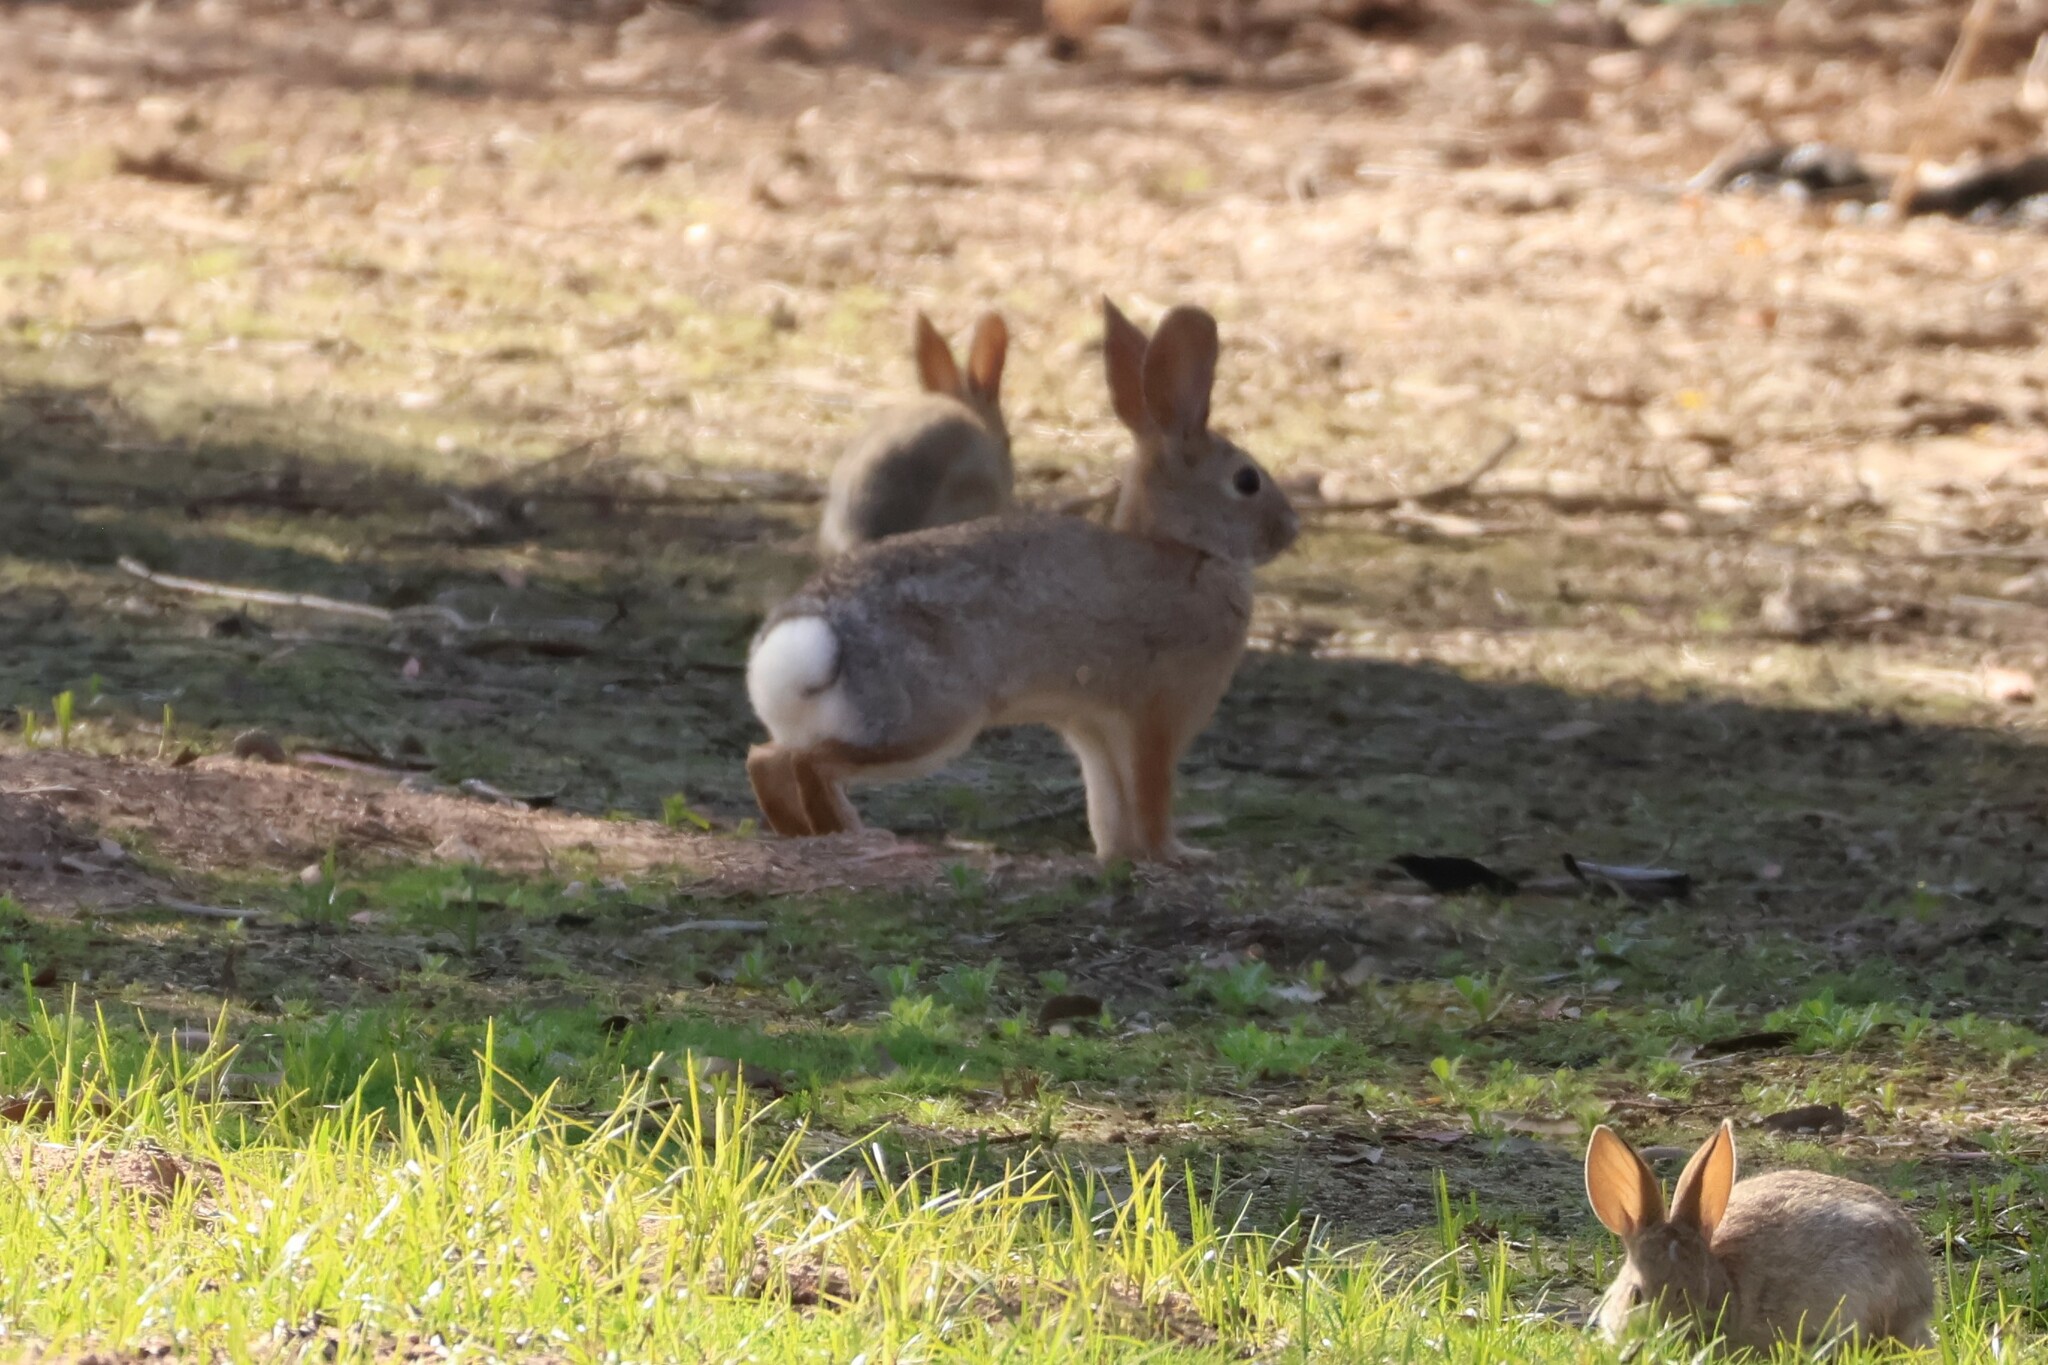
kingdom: Animalia
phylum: Chordata
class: Mammalia
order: Lagomorpha
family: Leporidae
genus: Sylvilagus
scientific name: Sylvilagus audubonii
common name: Desert cottontail
